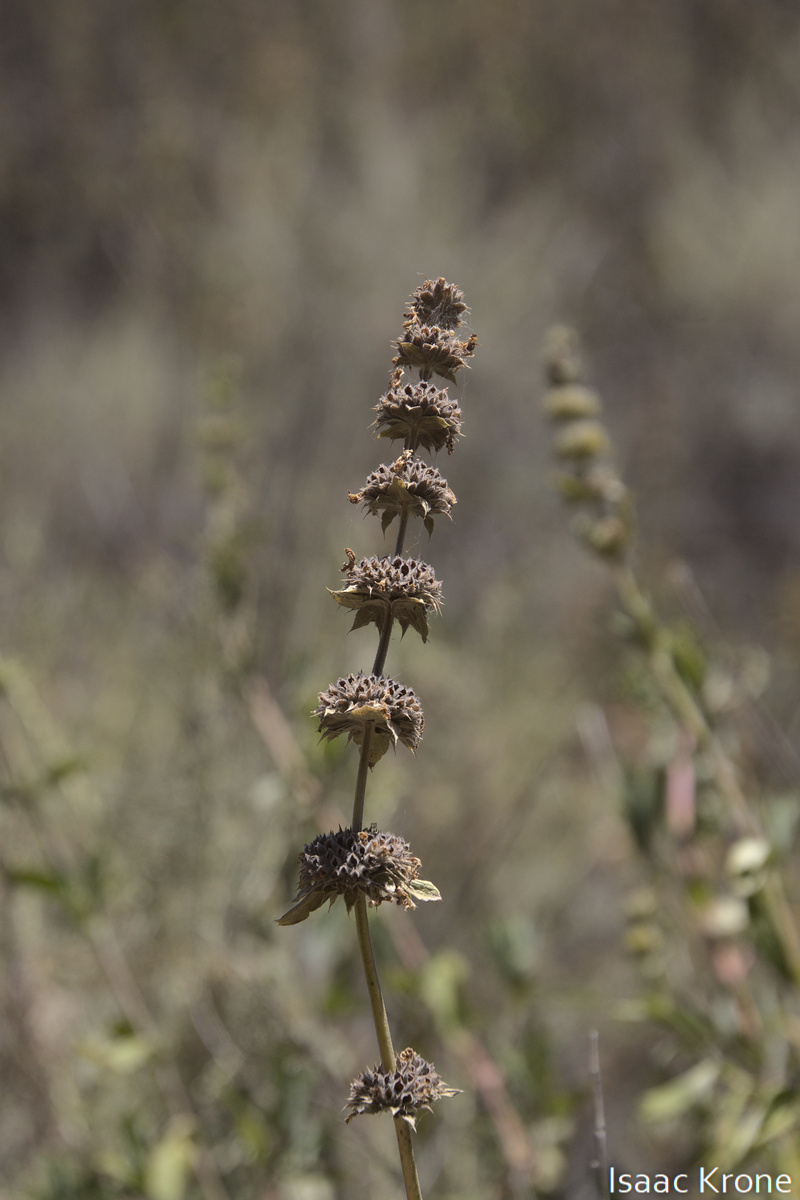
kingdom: Plantae
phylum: Tracheophyta
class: Magnoliopsida
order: Lamiales
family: Lamiaceae
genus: Salvia
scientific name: Salvia mellifera
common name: Black sage
